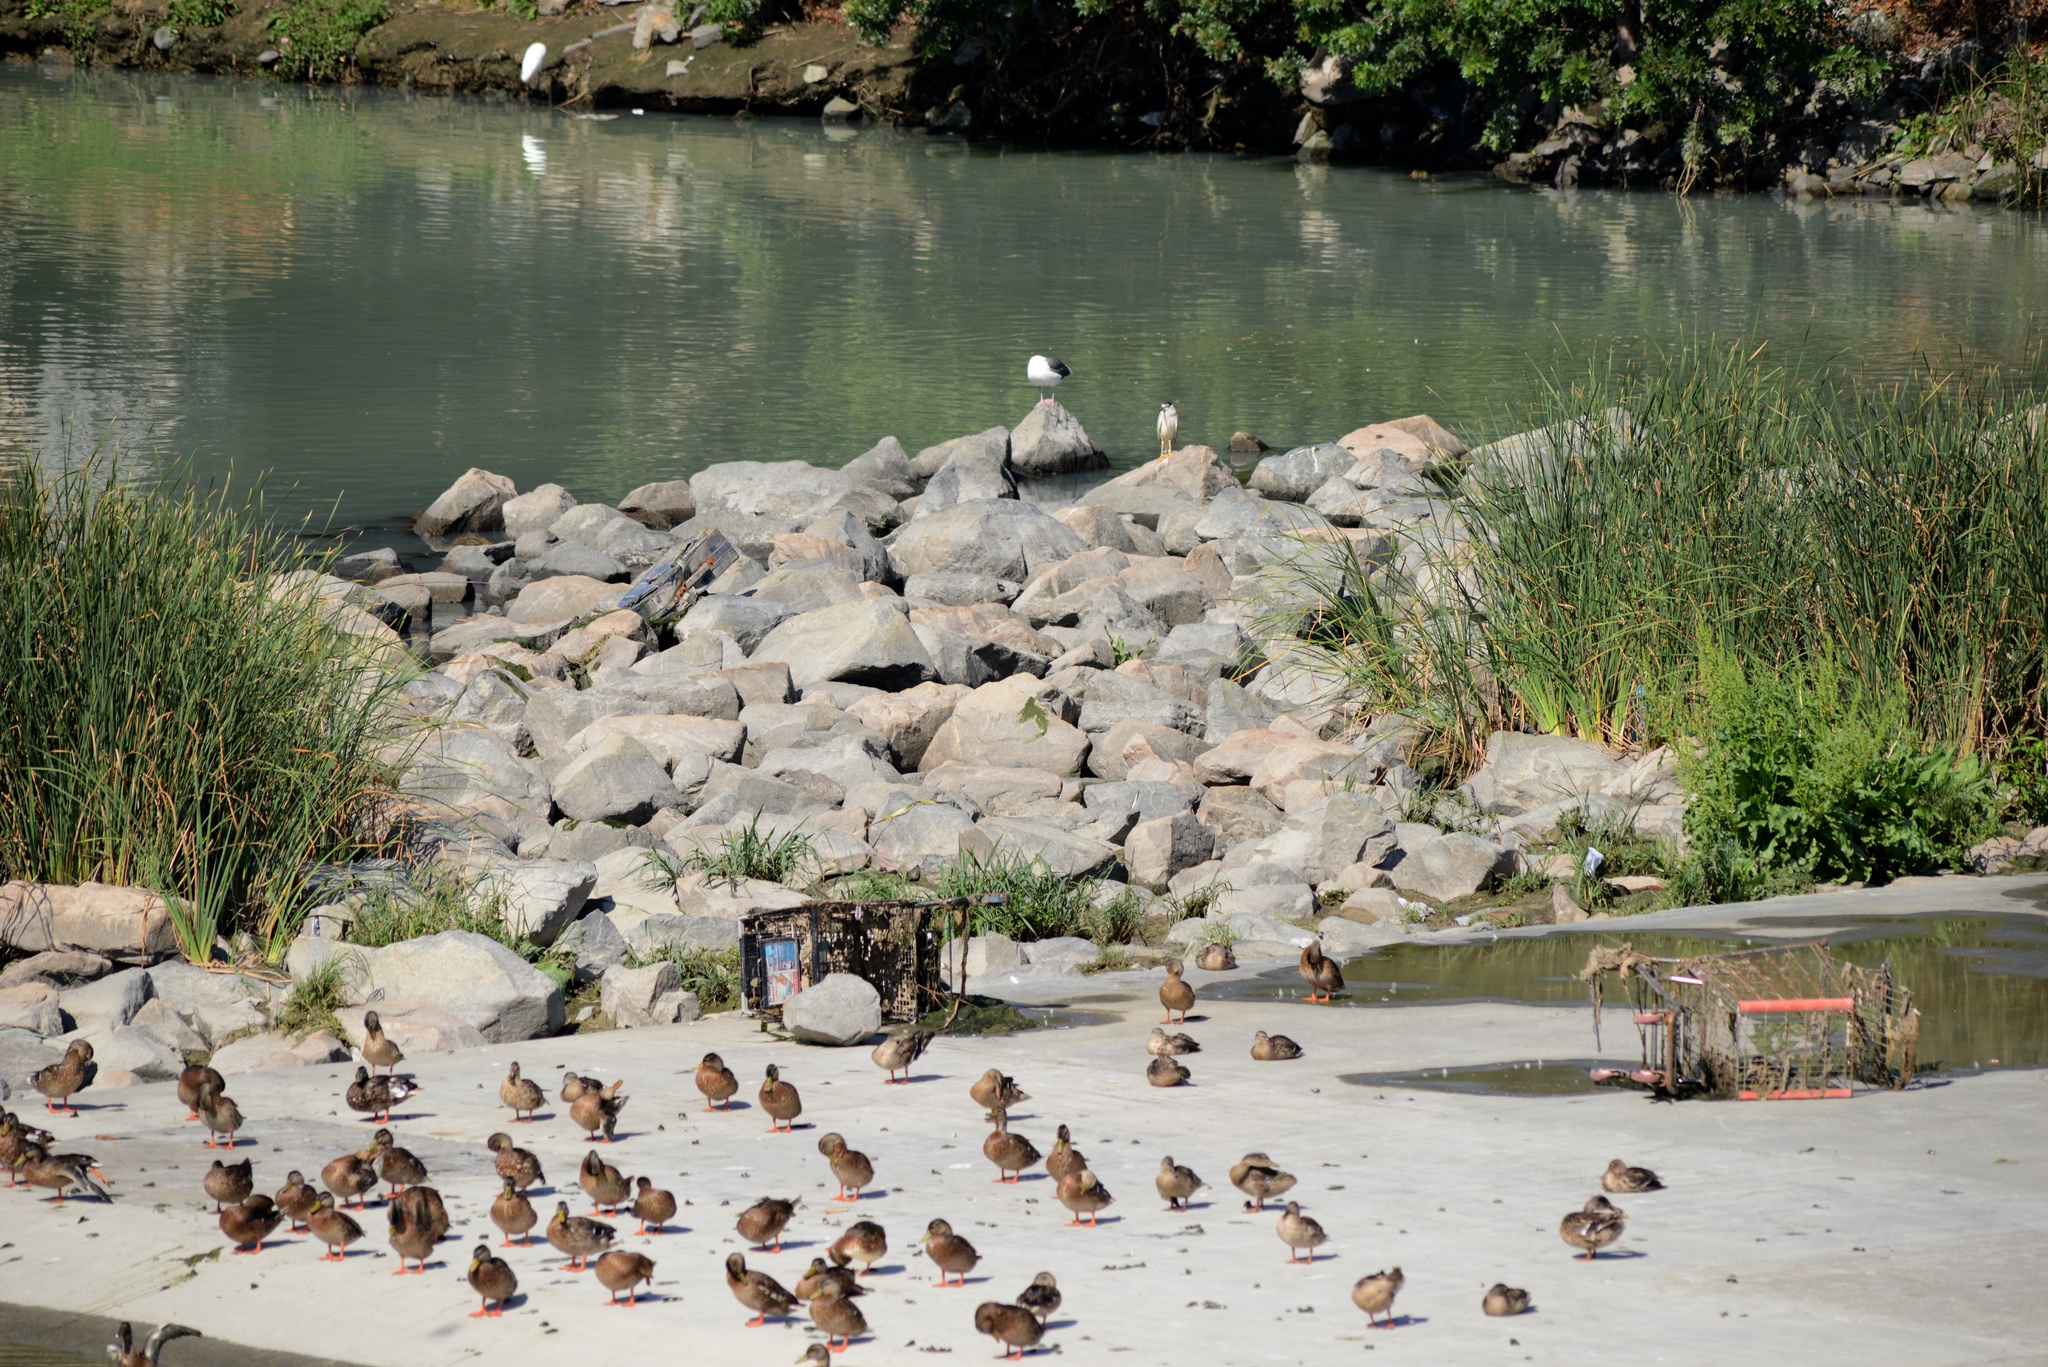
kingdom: Animalia
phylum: Chordata
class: Aves
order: Pelecaniformes
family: Ardeidae
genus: Nycticorax
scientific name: Nycticorax nycticorax
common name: Black-crowned night heron
